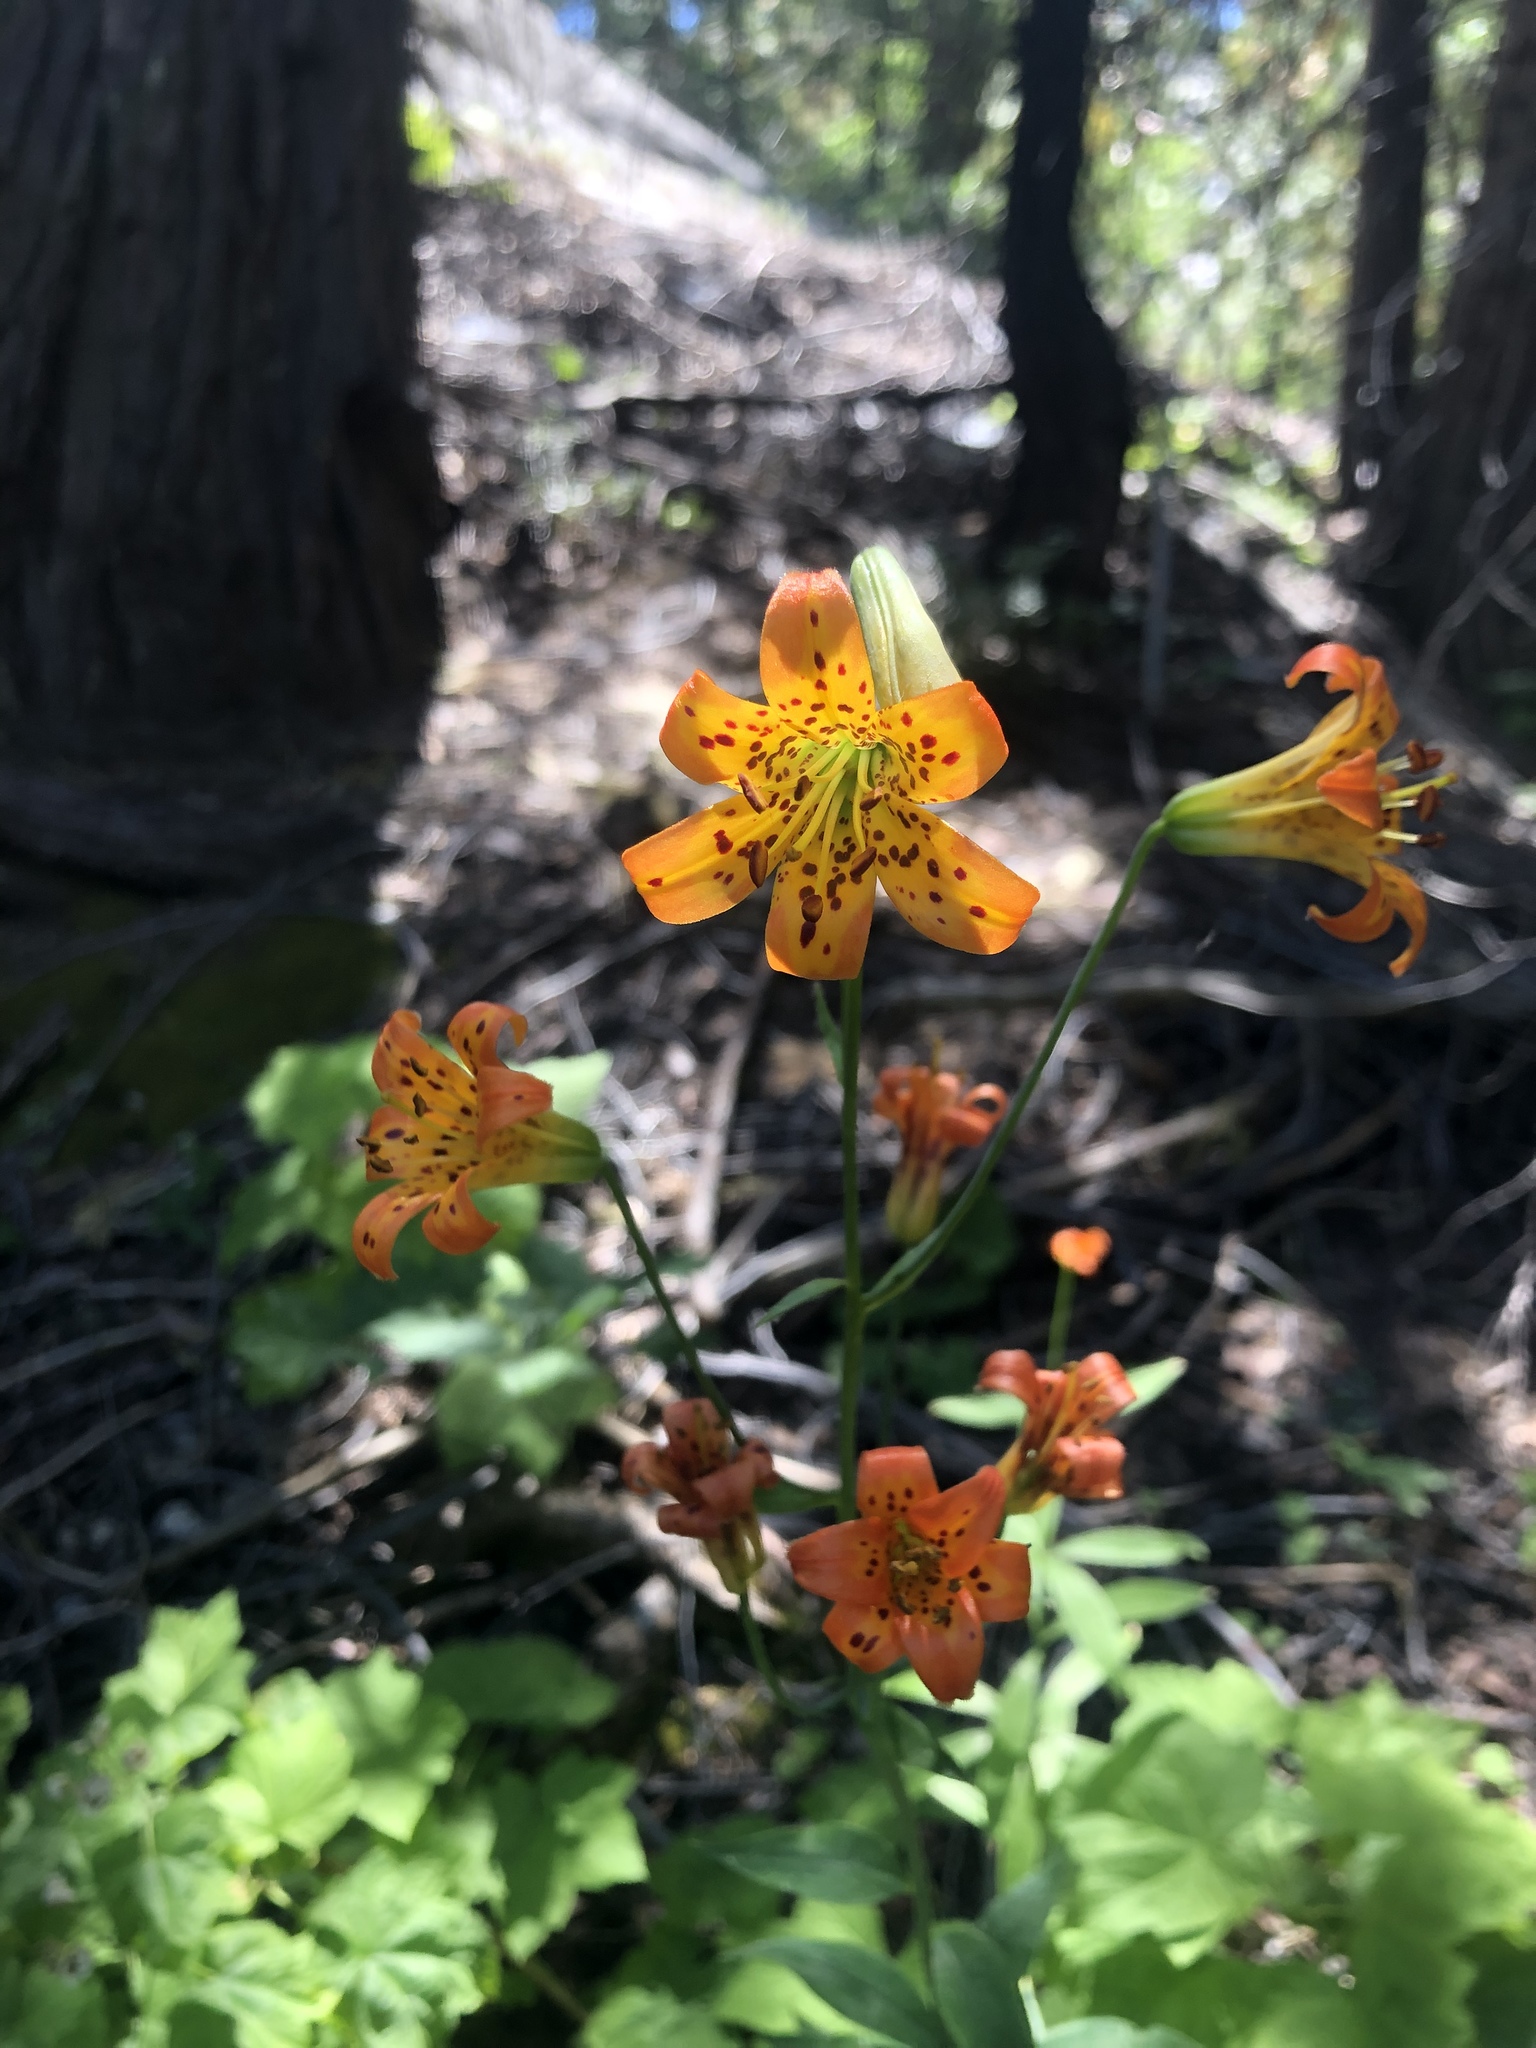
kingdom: Plantae
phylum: Tracheophyta
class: Liliopsida
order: Liliales
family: Liliaceae
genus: Lilium
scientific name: Lilium parvum
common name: Alpine lily
